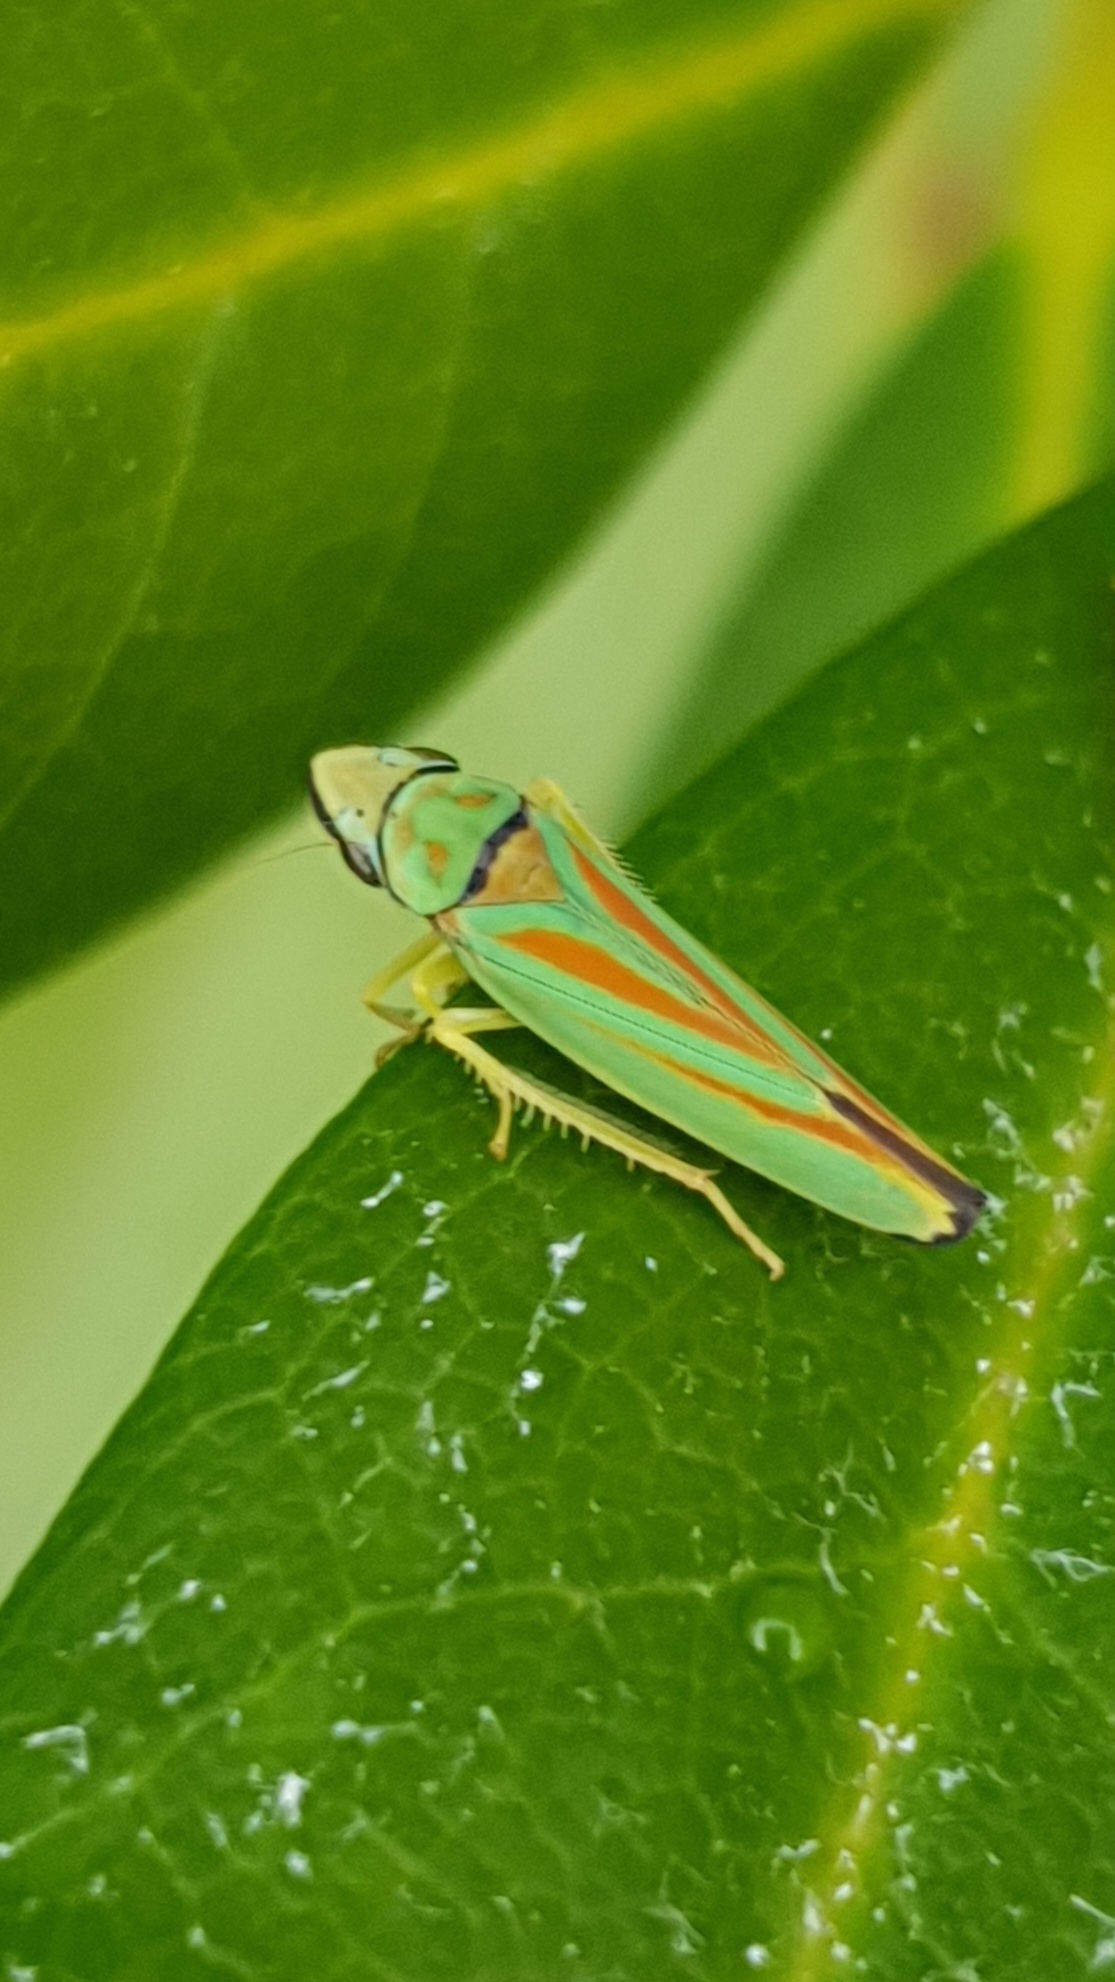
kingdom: Animalia
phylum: Arthropoda
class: Insecta
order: Hemiptera
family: Cicadellidae
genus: Graphocephala
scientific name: Graphocephala fennahi
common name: Rhododendron leafhopper
